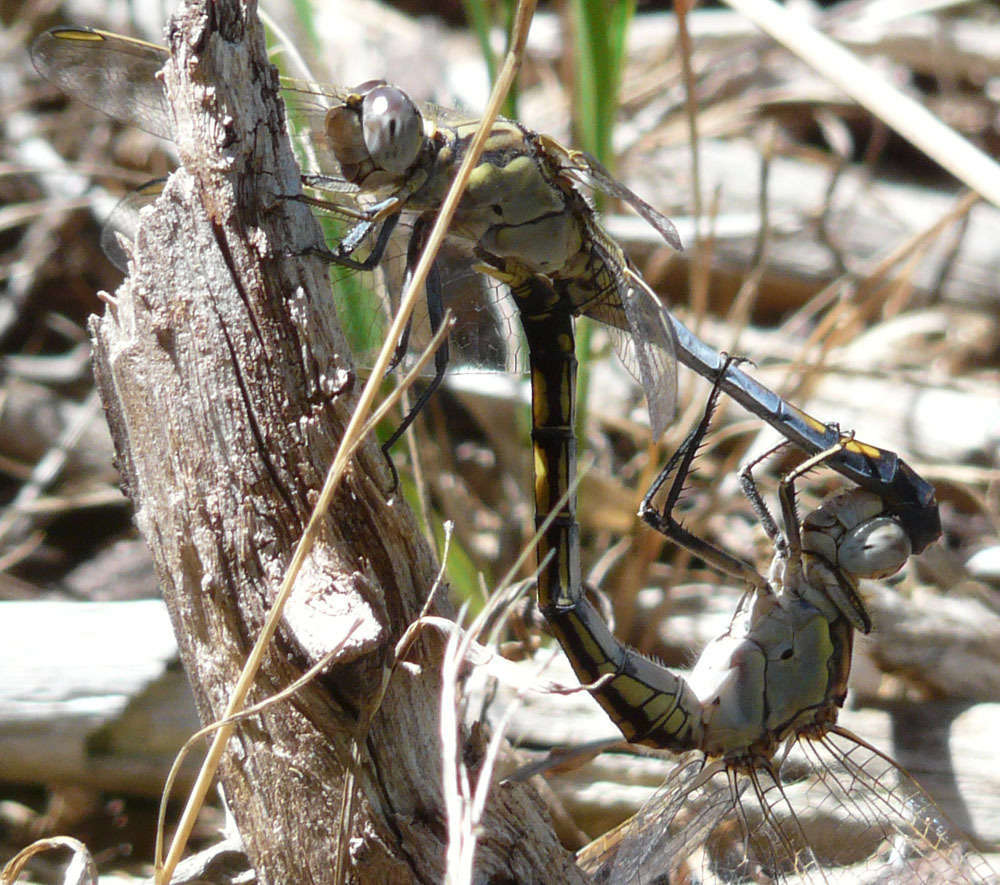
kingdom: Animalia
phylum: Arthropoda
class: Insecta
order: Odonata
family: Libellulidae
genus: Orthetrum
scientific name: Orthetrum caledonicum
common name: Blue skimmer
